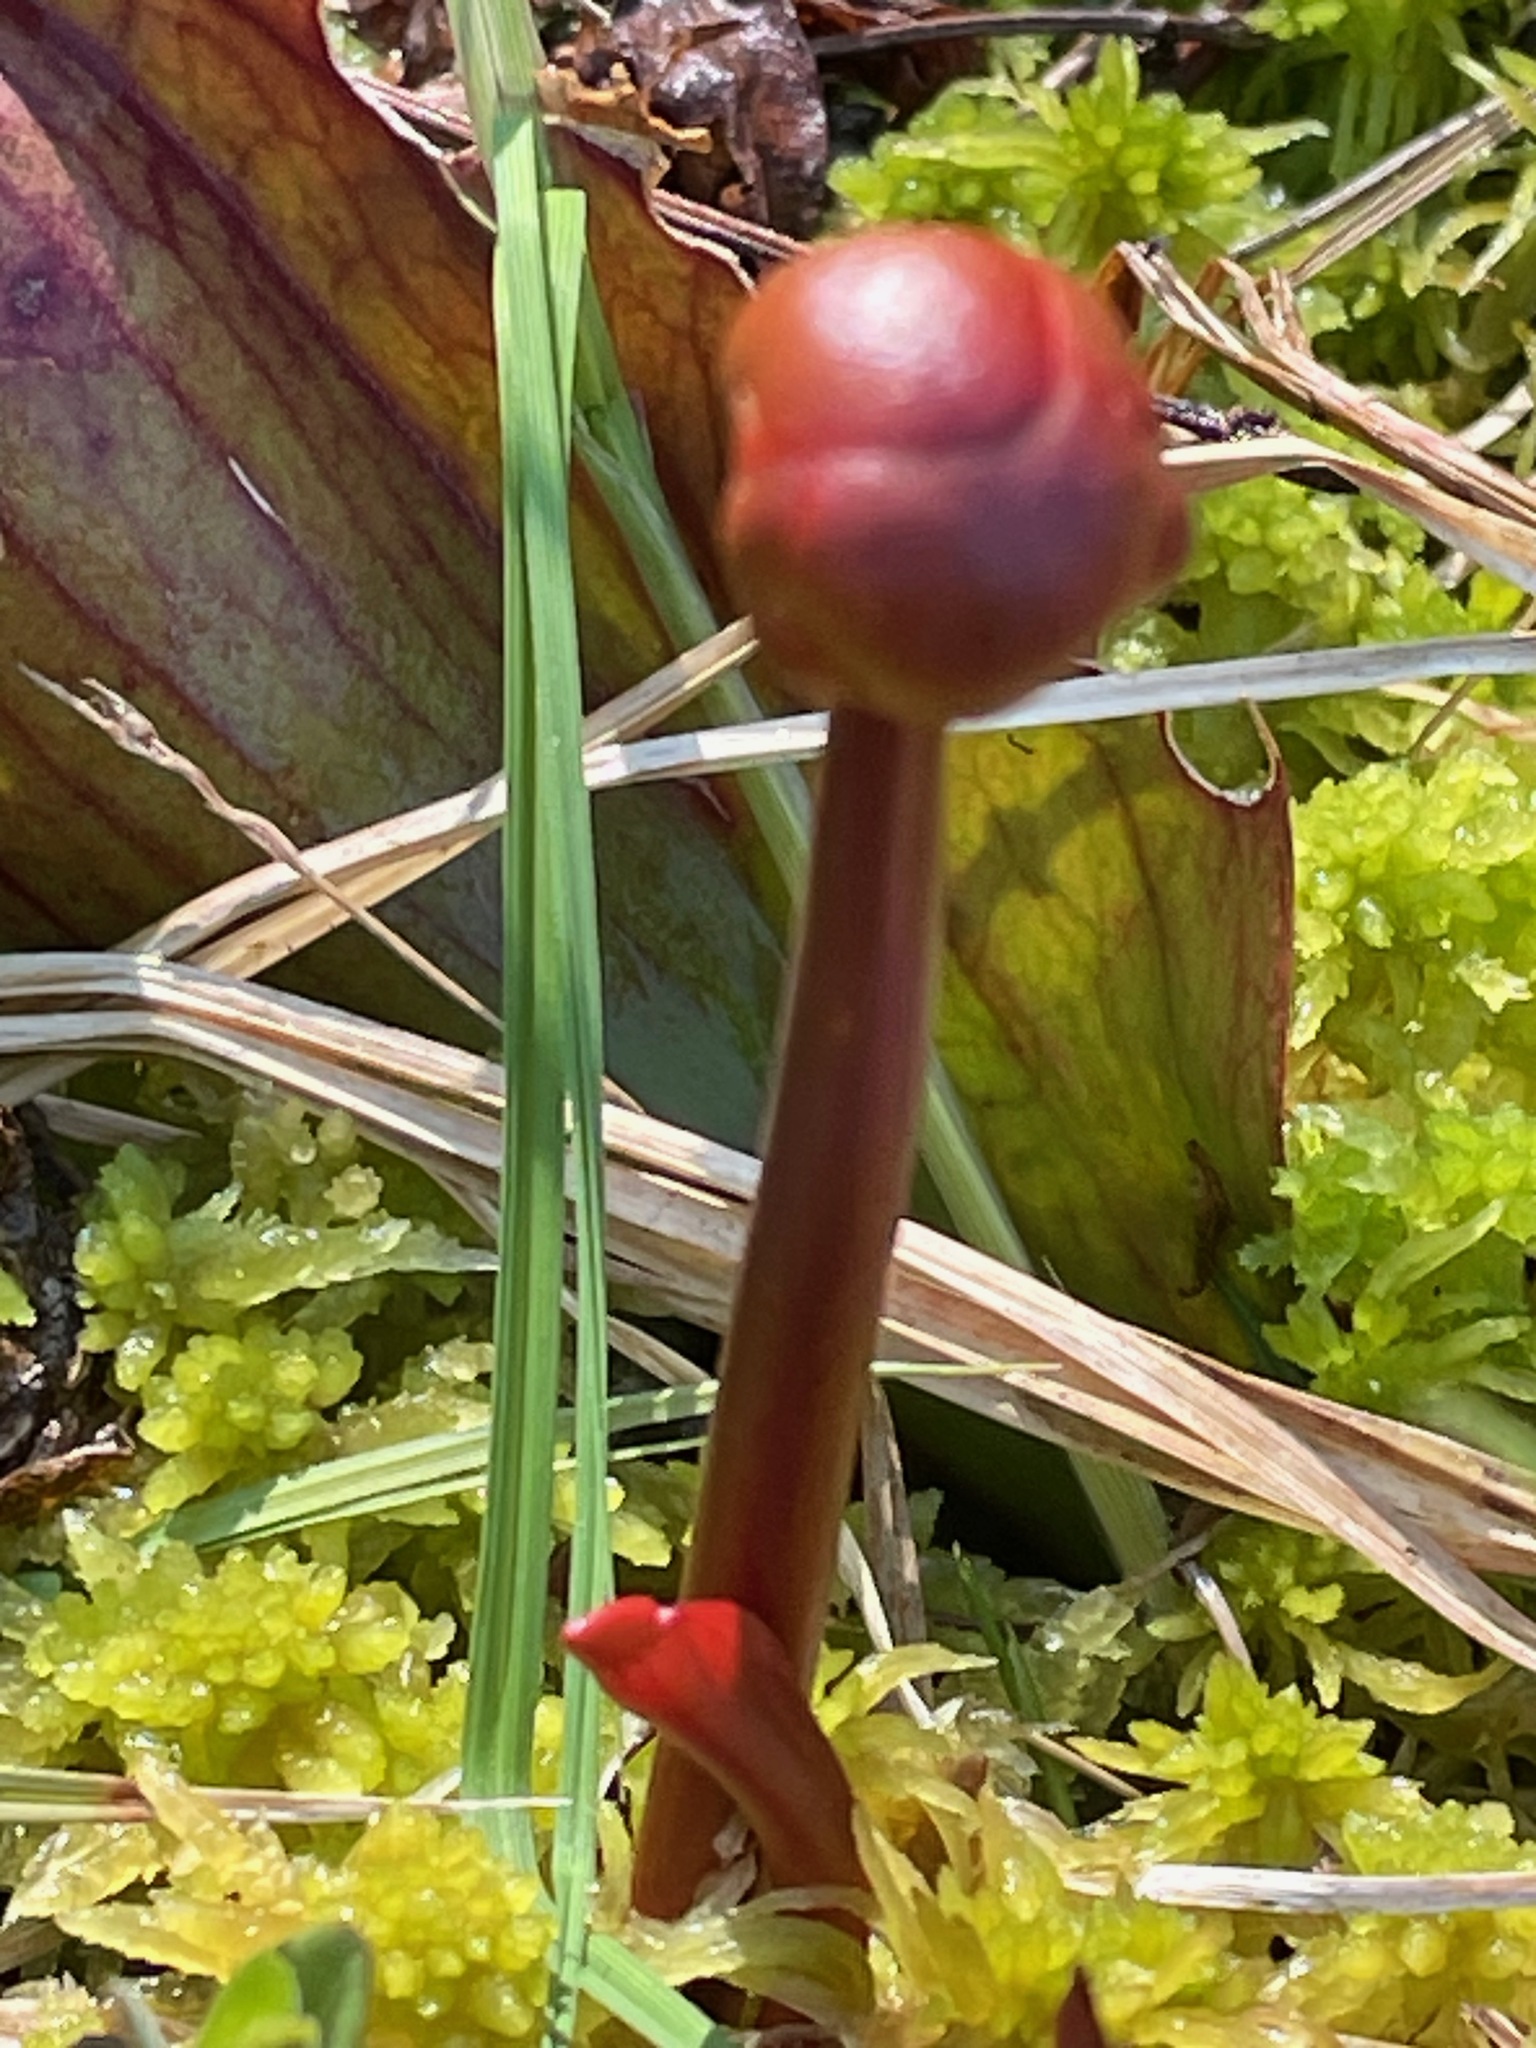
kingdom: Plantae
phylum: Tracheophyta
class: Magnoliopsida
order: Ericales
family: Sarraceniaceae
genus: Sarracenia
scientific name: Sarracenia purpurea
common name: Pitcherplant
